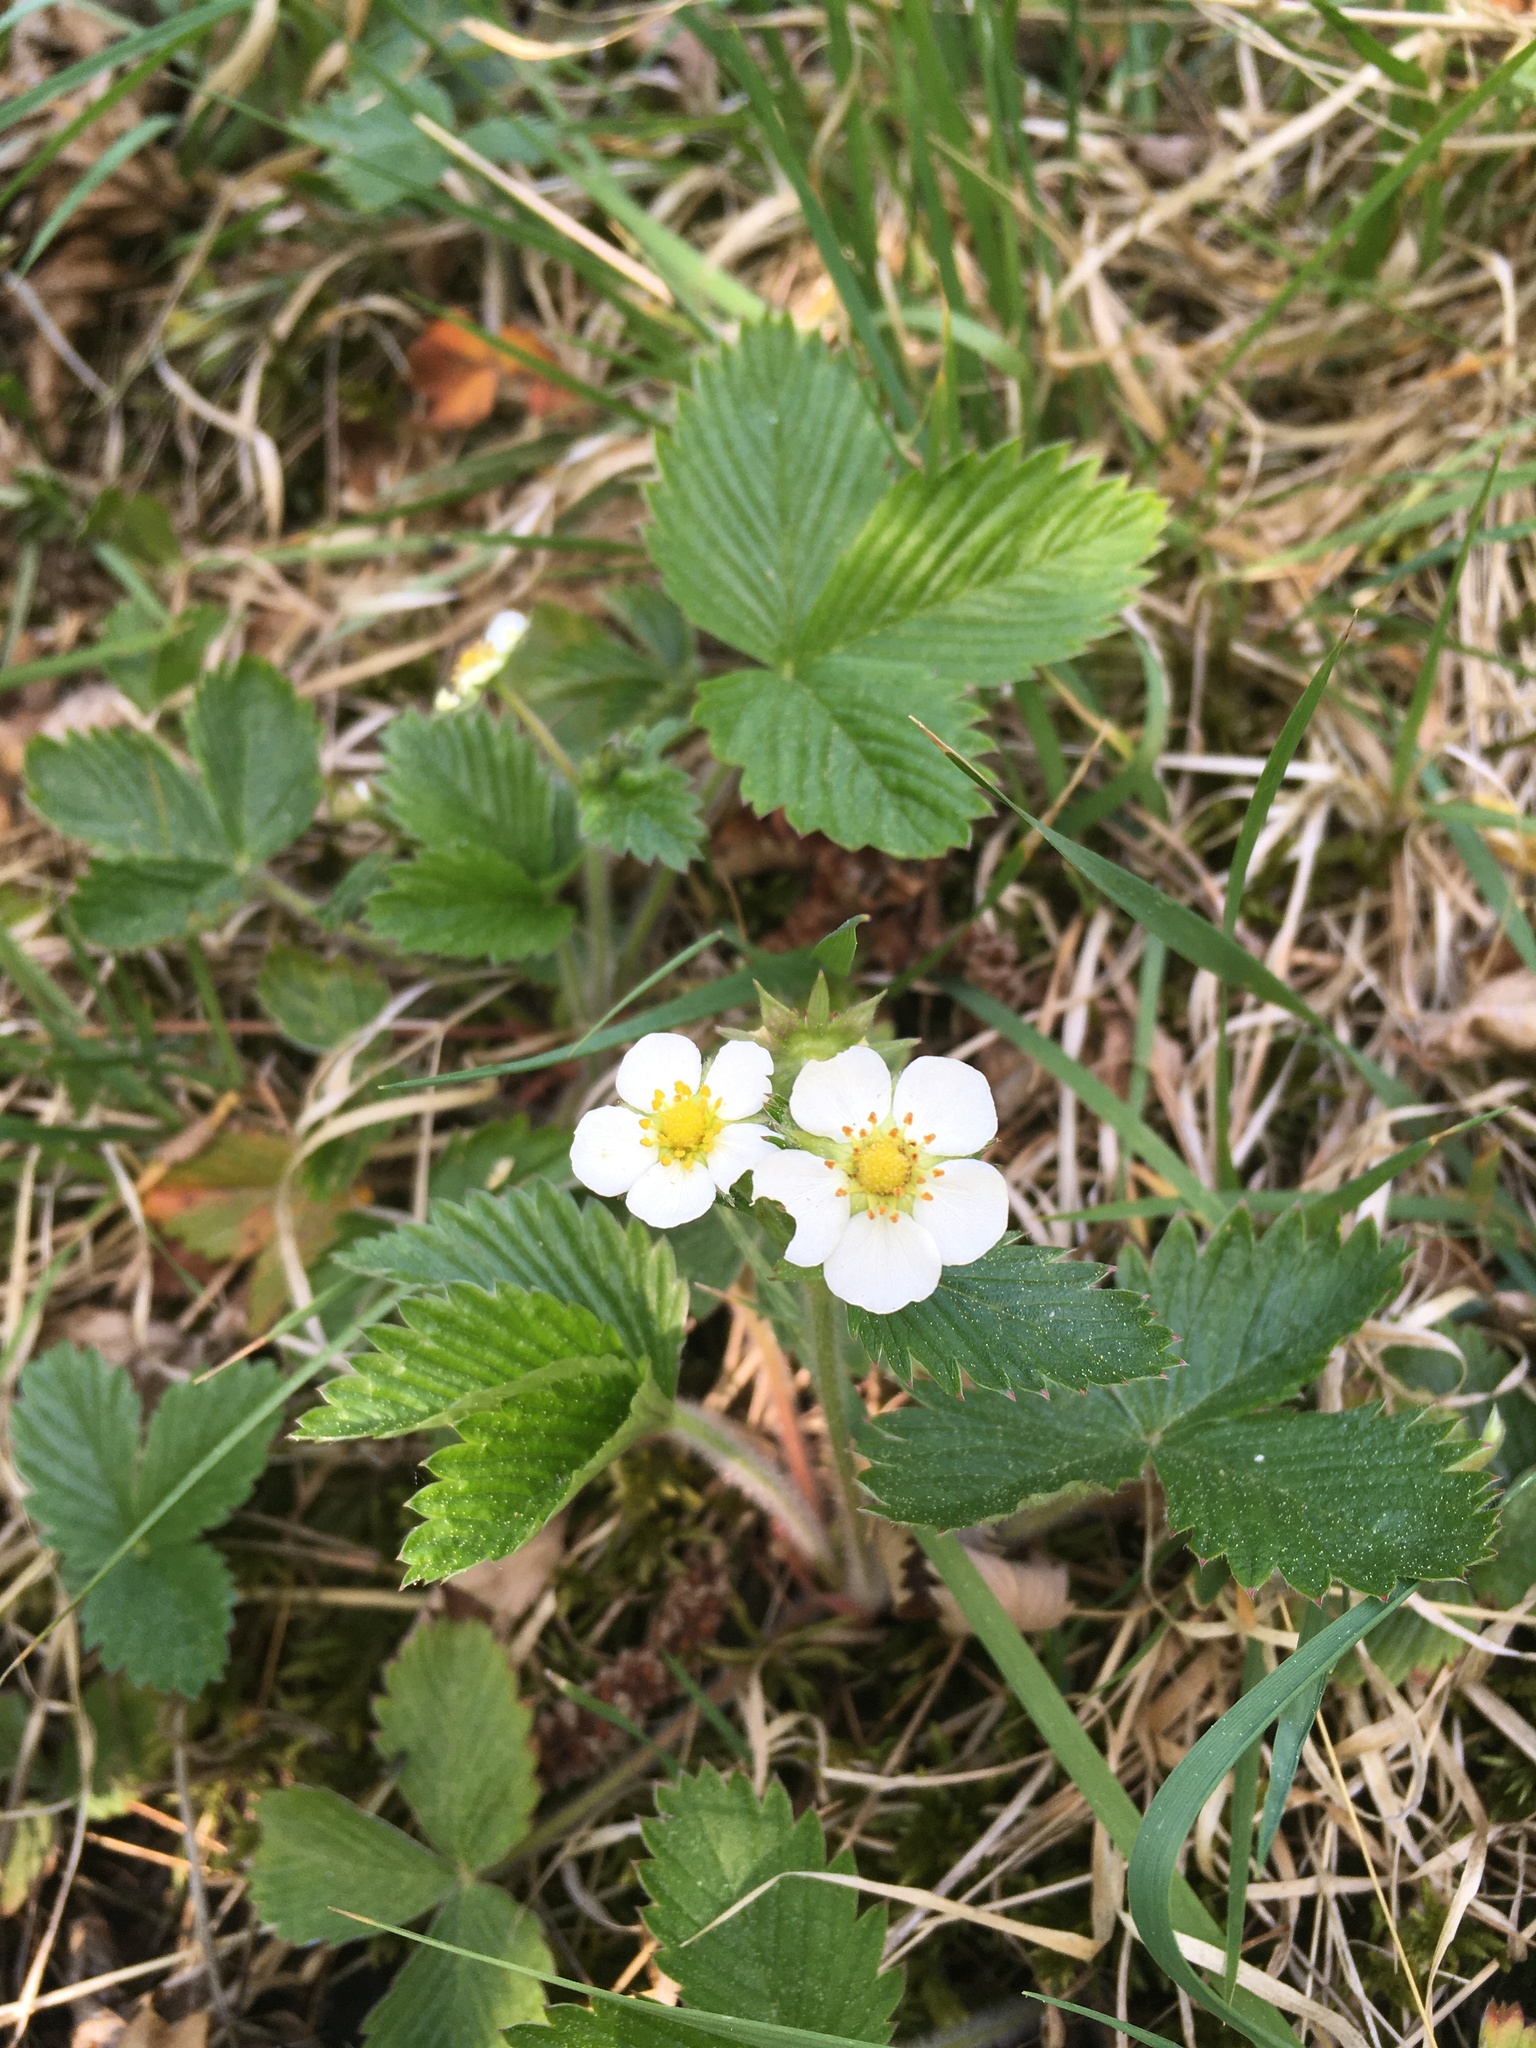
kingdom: Plantae
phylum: Tracheophyta
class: Magnoliopsida
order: Rosales
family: Rosaceae
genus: Fragaria
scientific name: Fragaria vesca
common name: Wild strawberry
